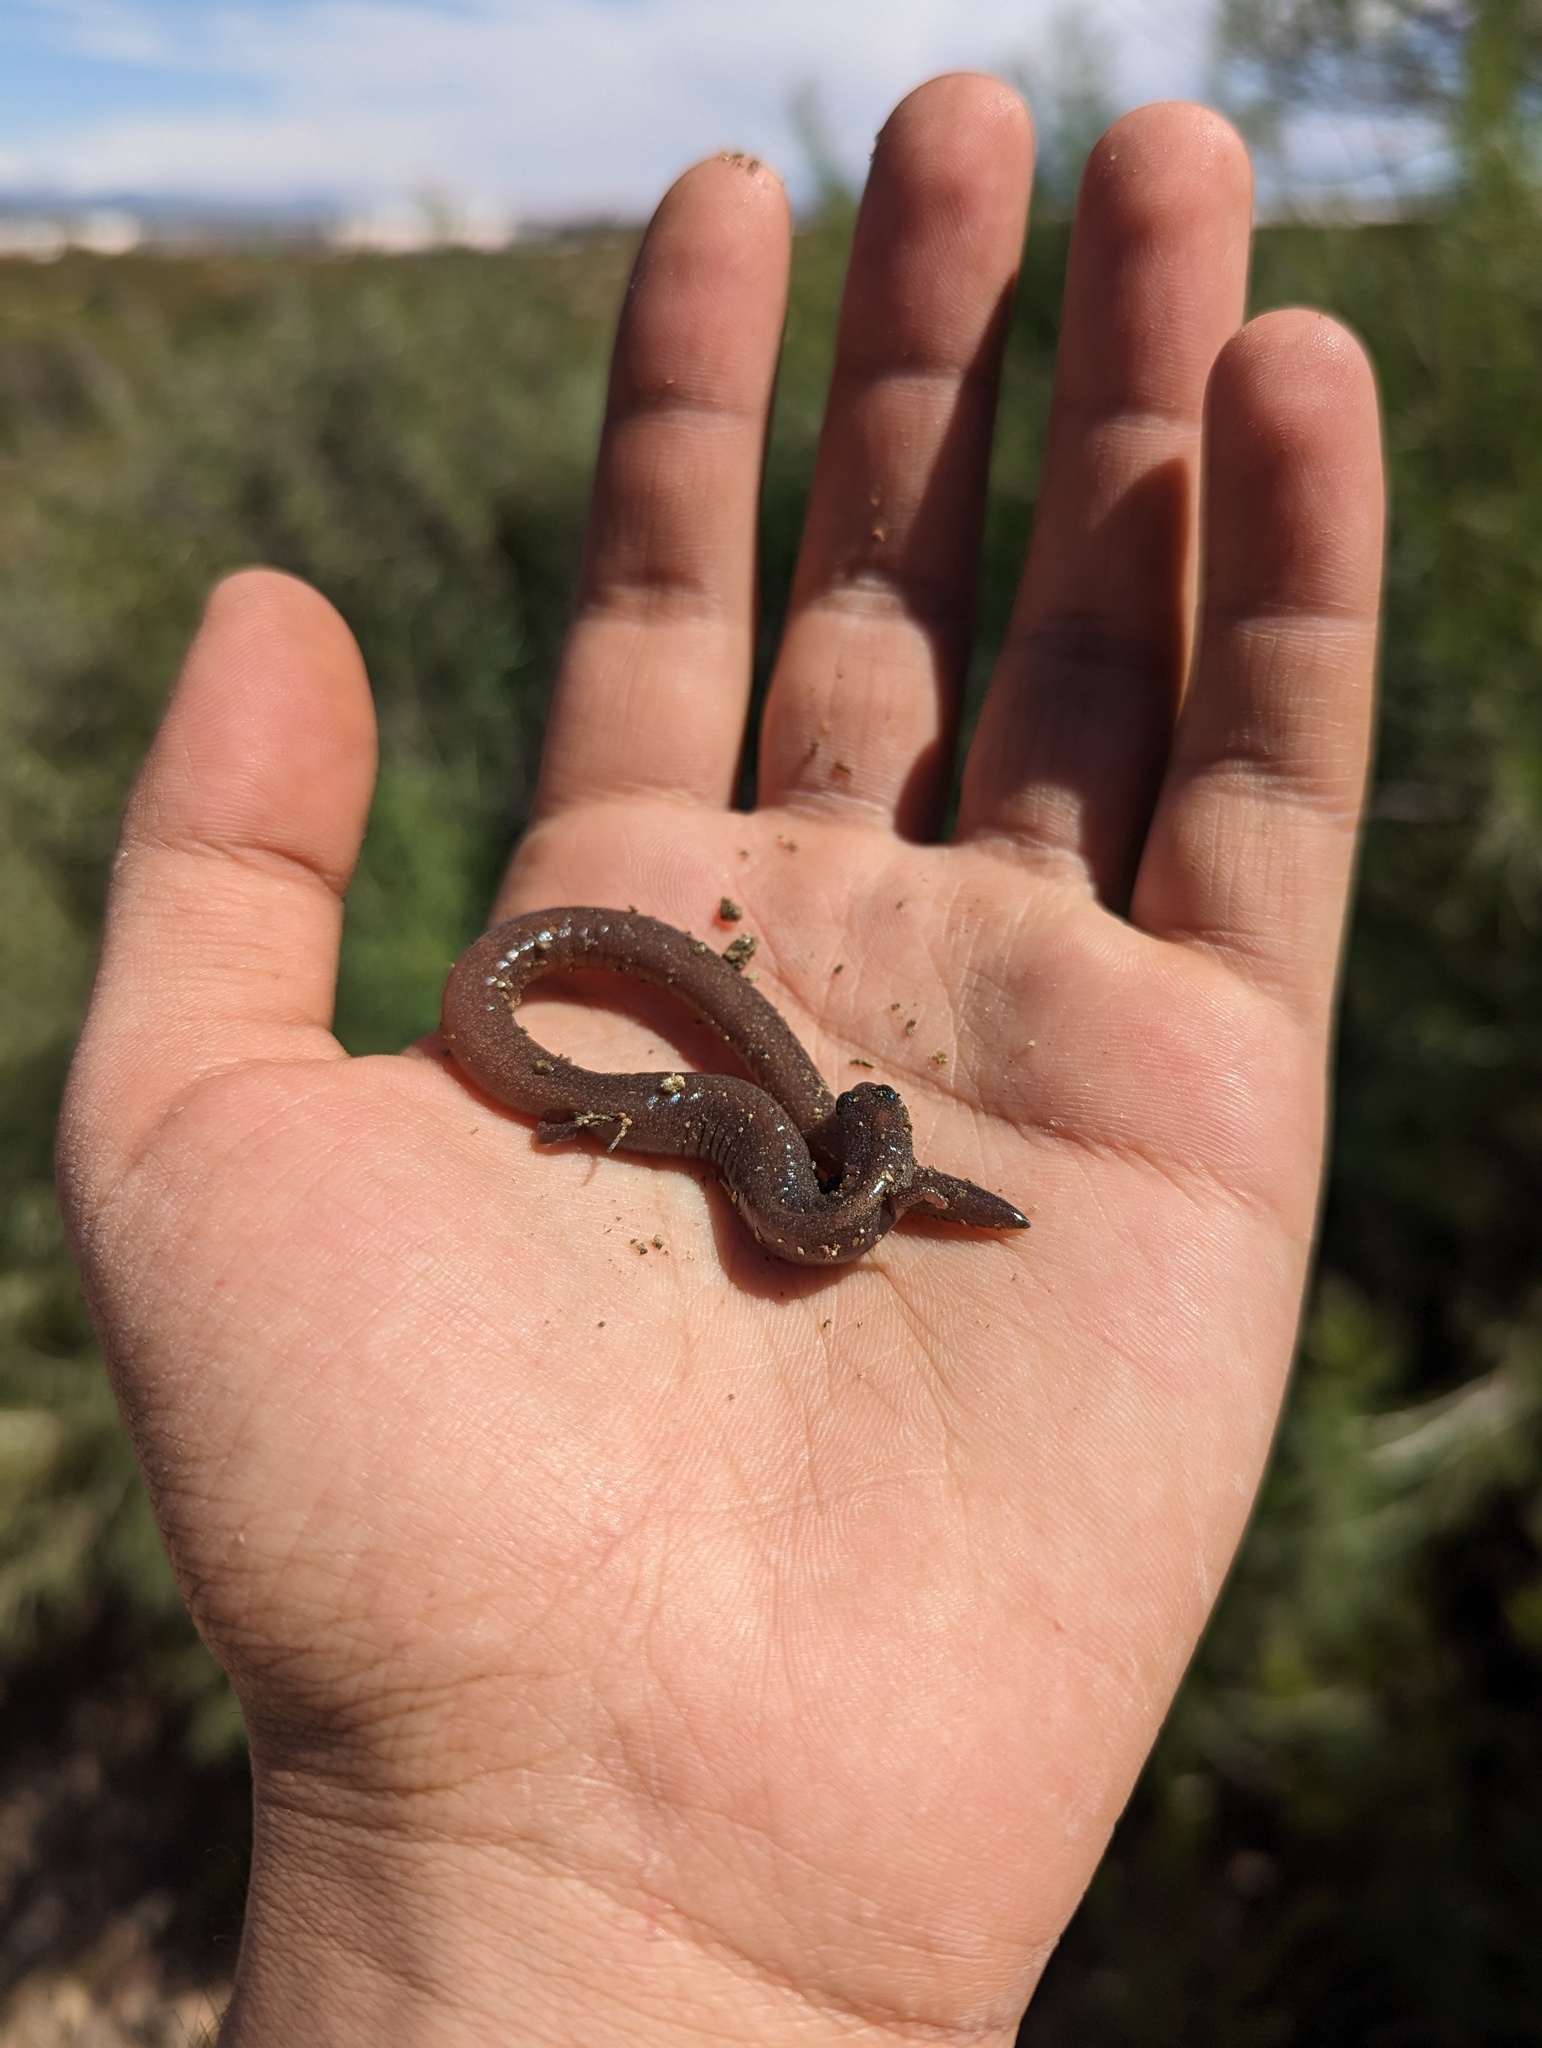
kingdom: Animalia
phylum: Chordata
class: Amphibia
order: Caudata
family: Plethodontidae
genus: Batrachoseps
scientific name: Batrachoseps major
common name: Garden slender salamander
